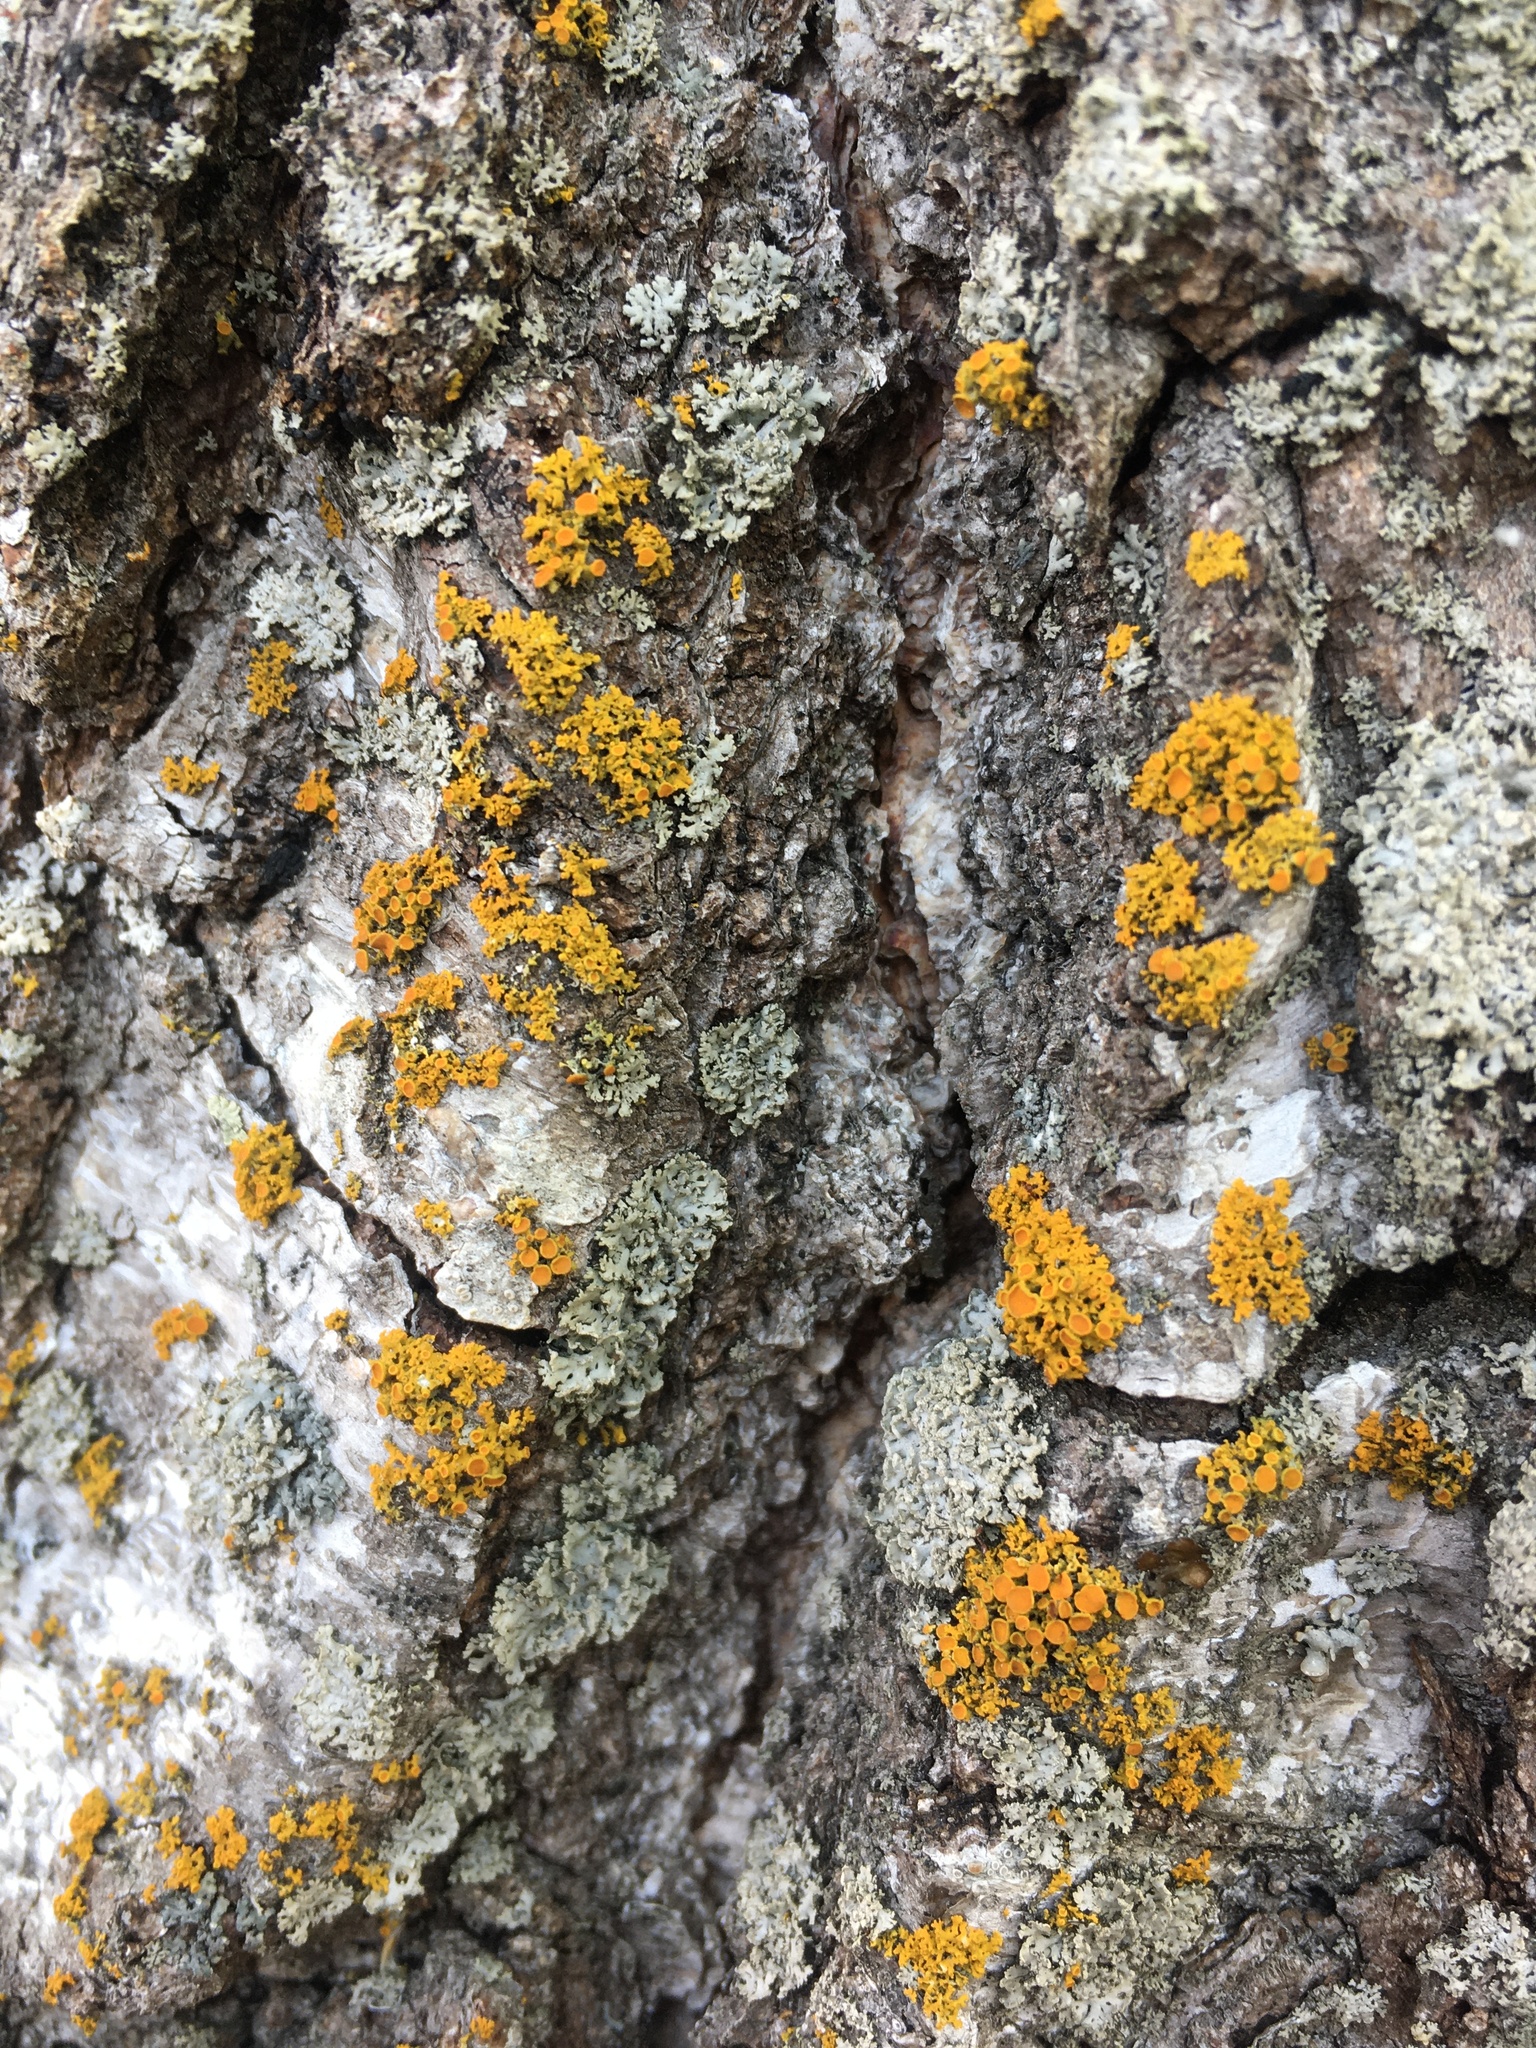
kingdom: Fungi
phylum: Ascomycota
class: Lecanoromycetes
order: Teloschistales
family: Teloschistaceae
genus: Polycauliona
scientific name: Polycauliona polycarpa
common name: Pin-cushion sunburst lichen
